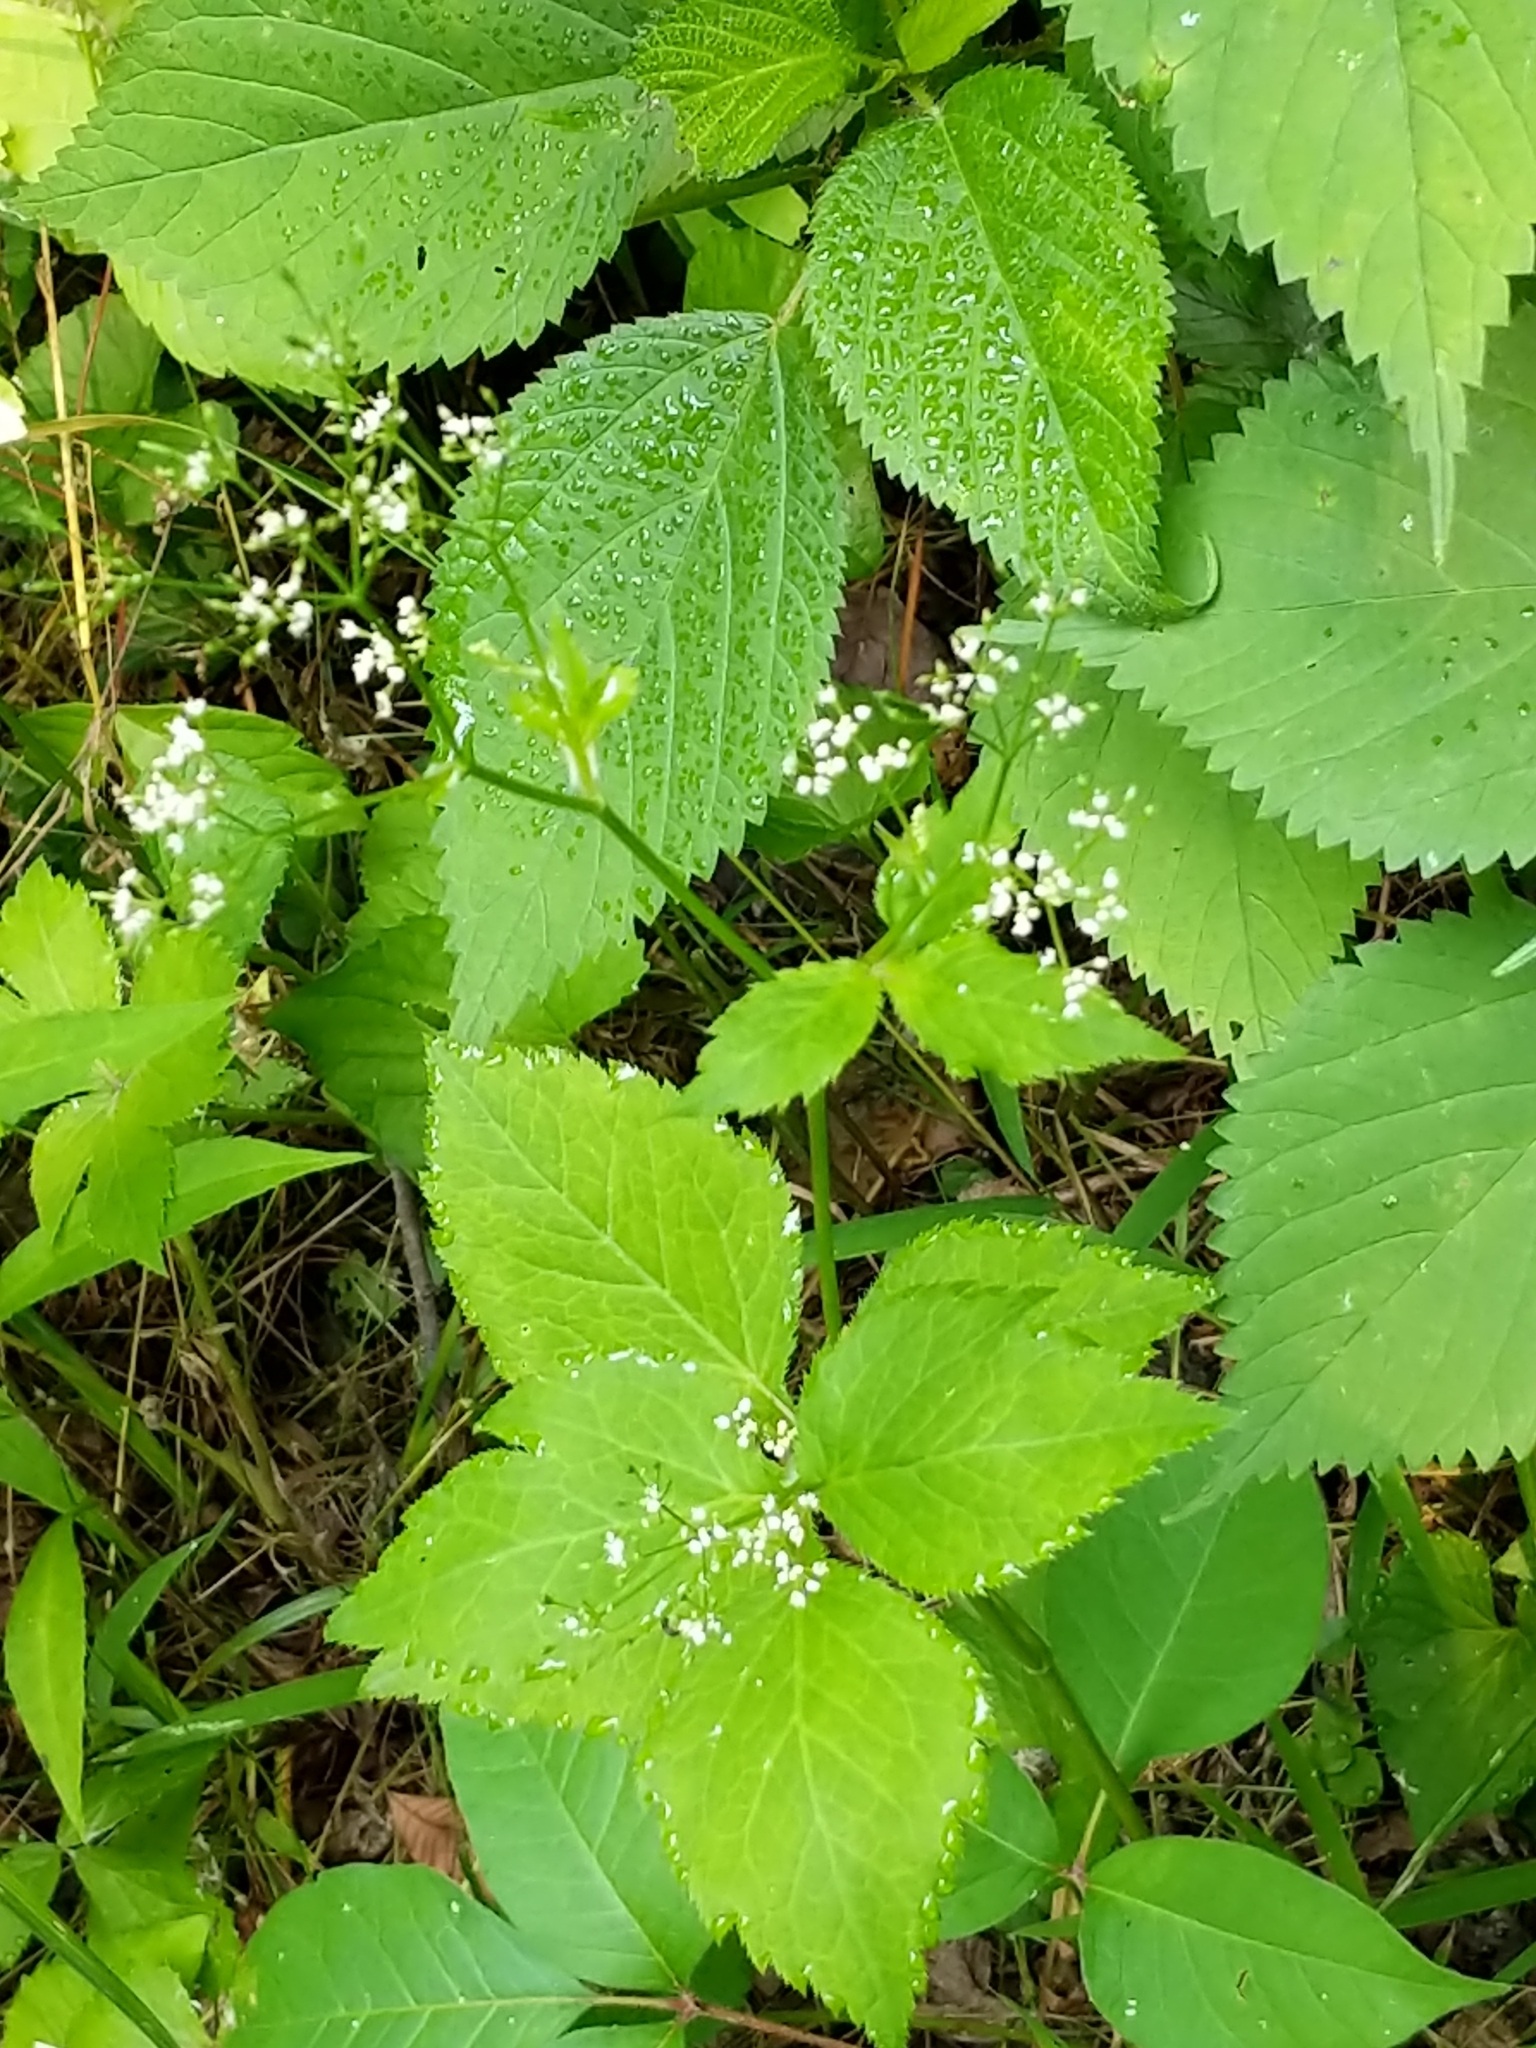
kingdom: Plantae
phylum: Tracheophyta
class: Magnoliopsida
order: Apiales
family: Apiaceae
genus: Cryptotaenia
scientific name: Cryptotaenia canadensis
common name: Honewort
